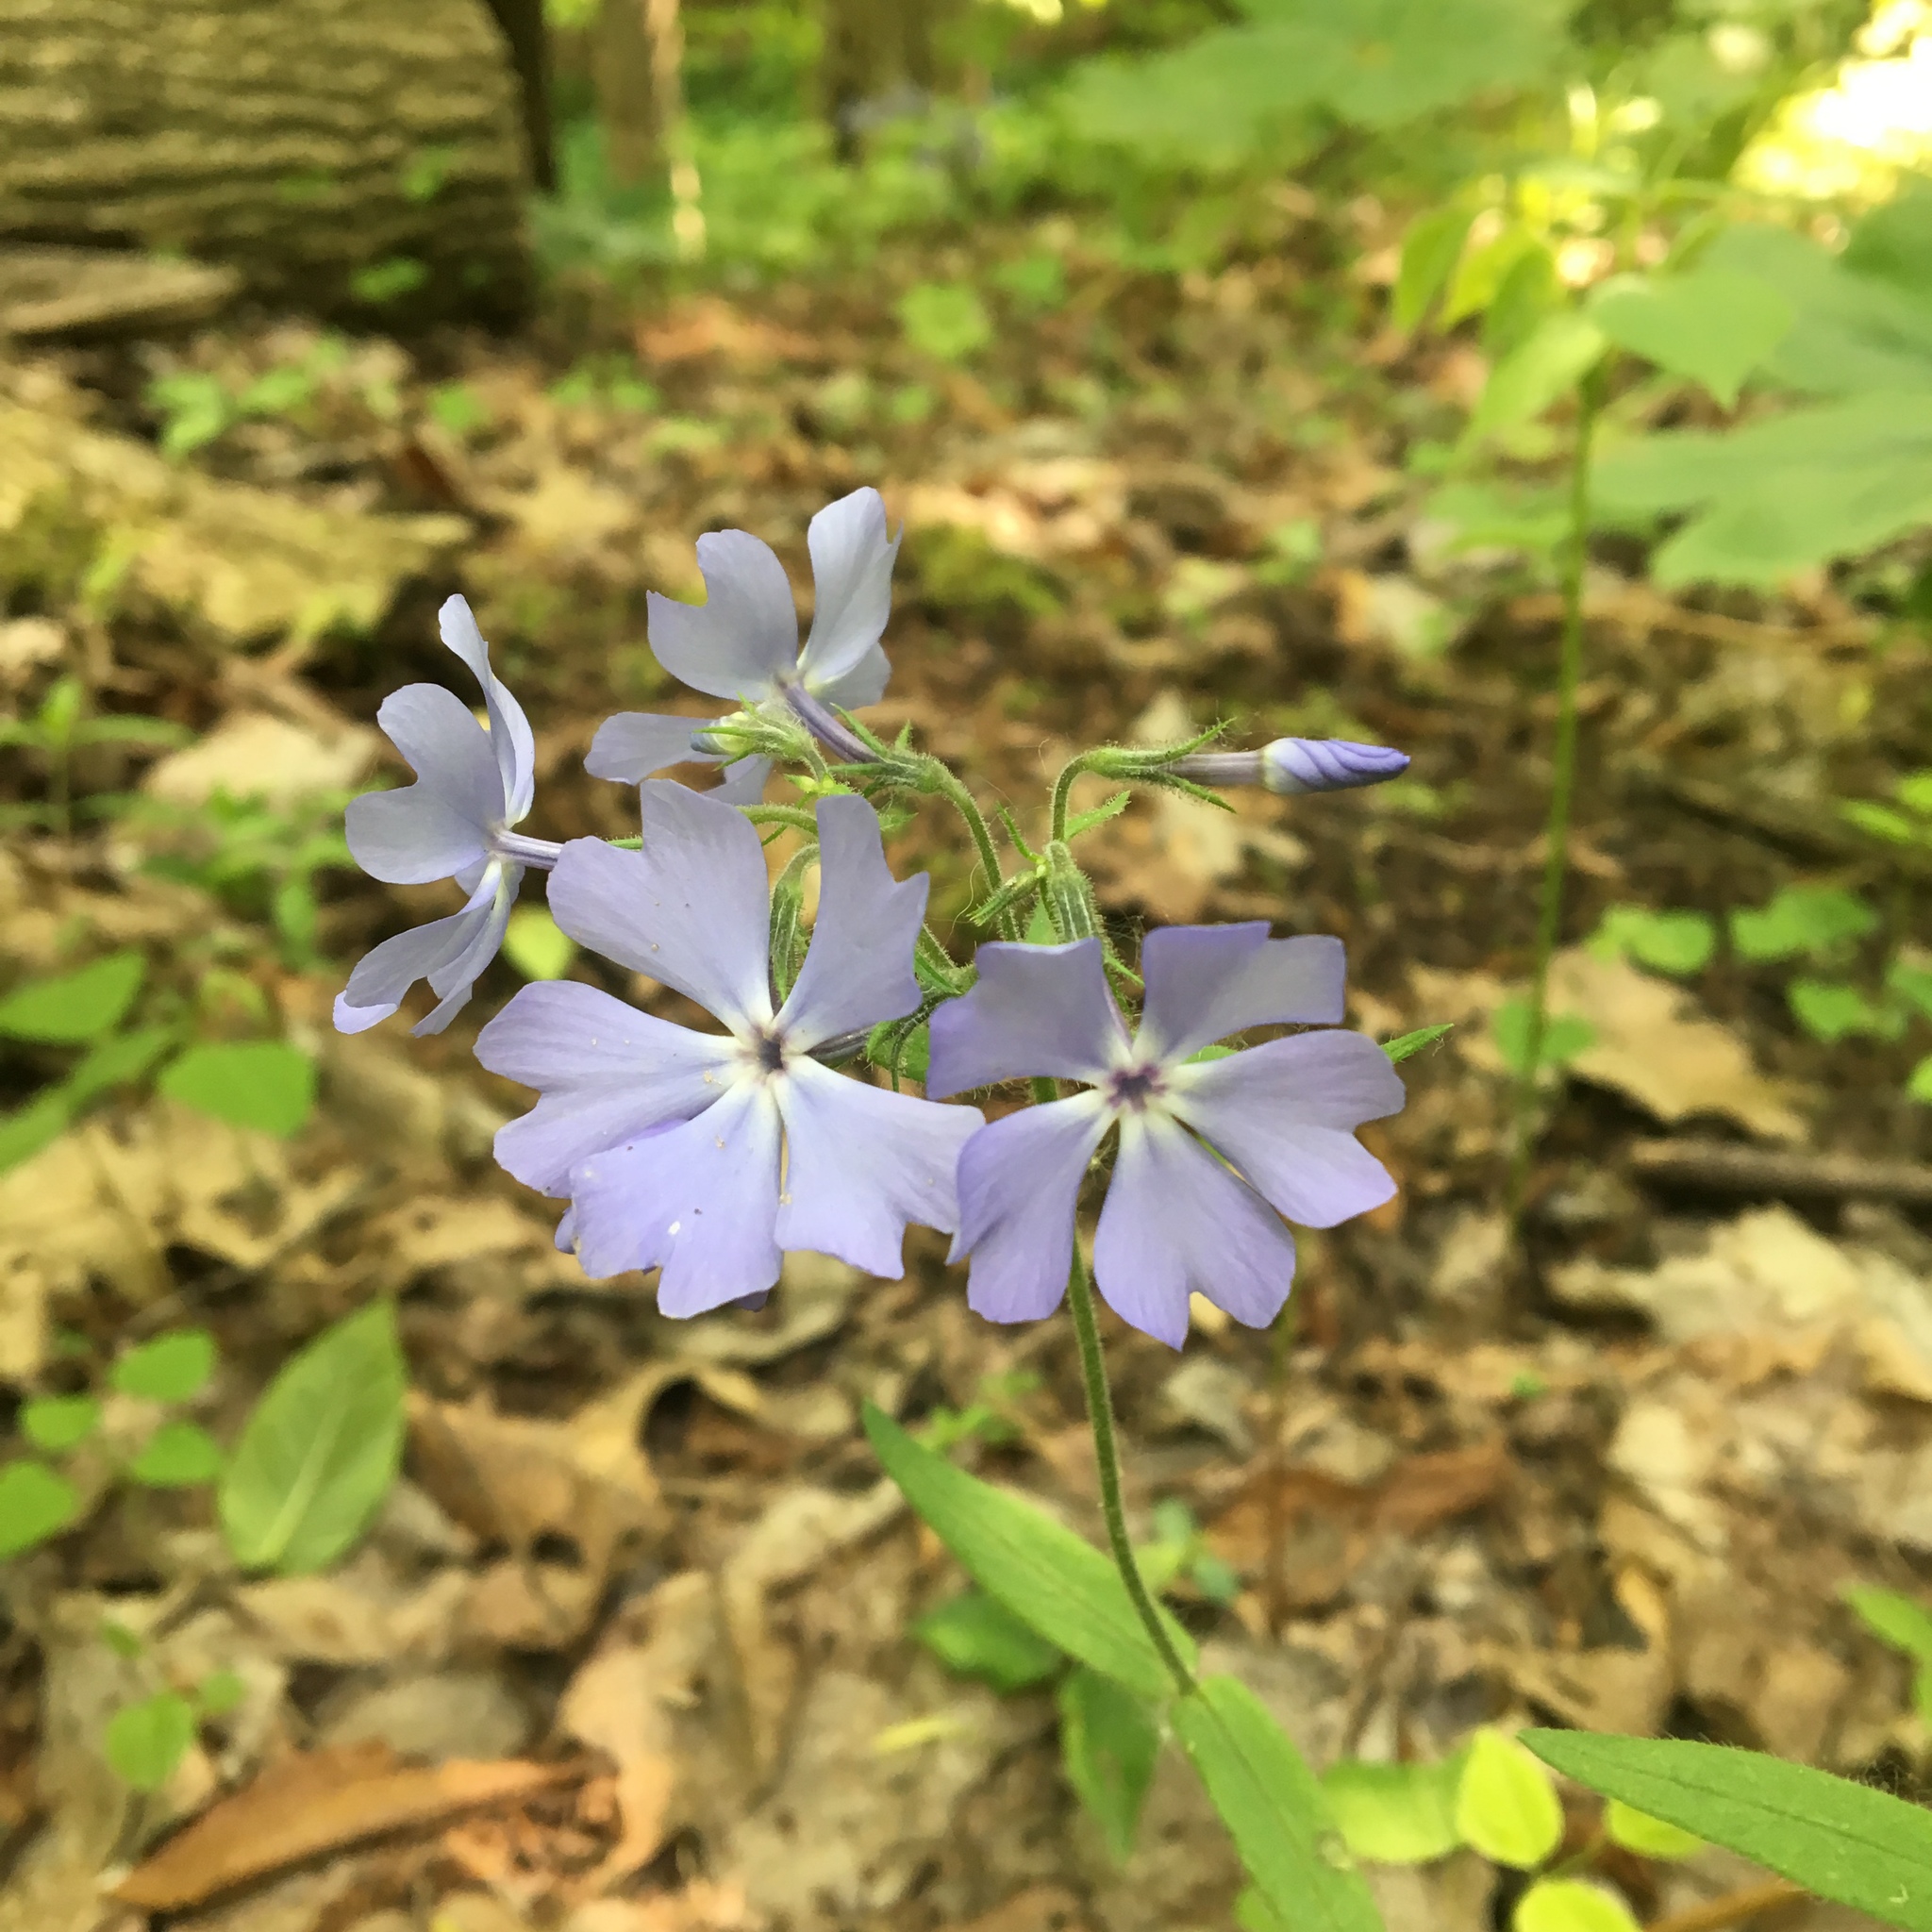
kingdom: Plantae
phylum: Tracheophyta
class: Magnoliopsida
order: Ericales
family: Polemoniaceae
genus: Phlox
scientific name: Phlox divaricata
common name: Blue phlox
